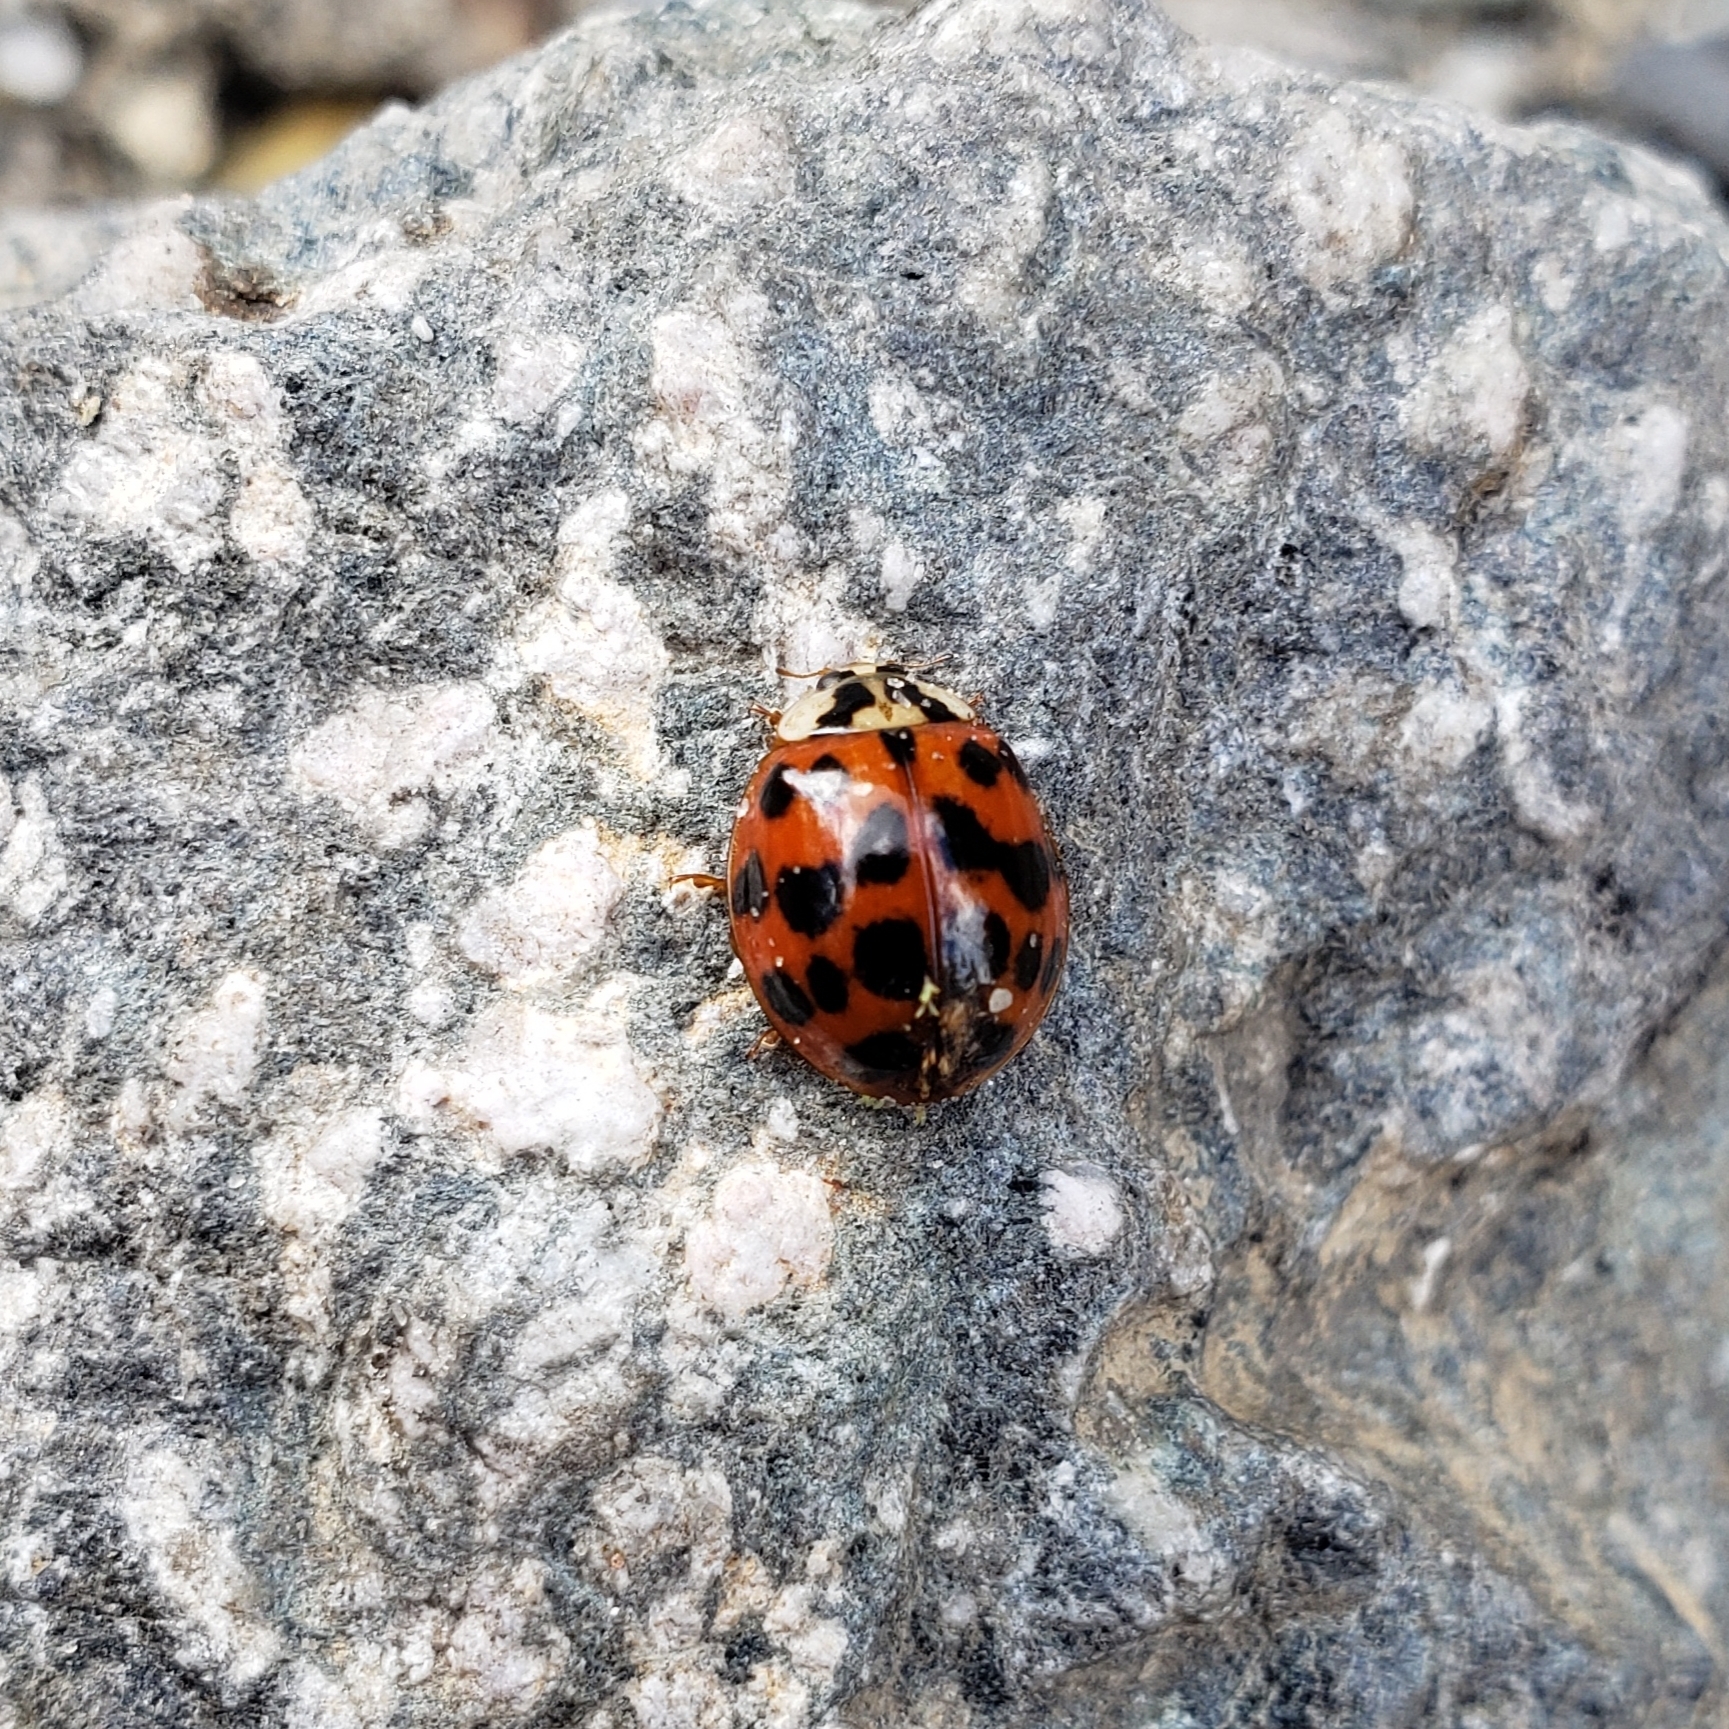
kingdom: Animalia
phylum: Arthropoda
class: Insecta
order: Coleoptera
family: Coccinellidae
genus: Harmonia
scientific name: Harmonia axyridis
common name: Harlequin ladybird
